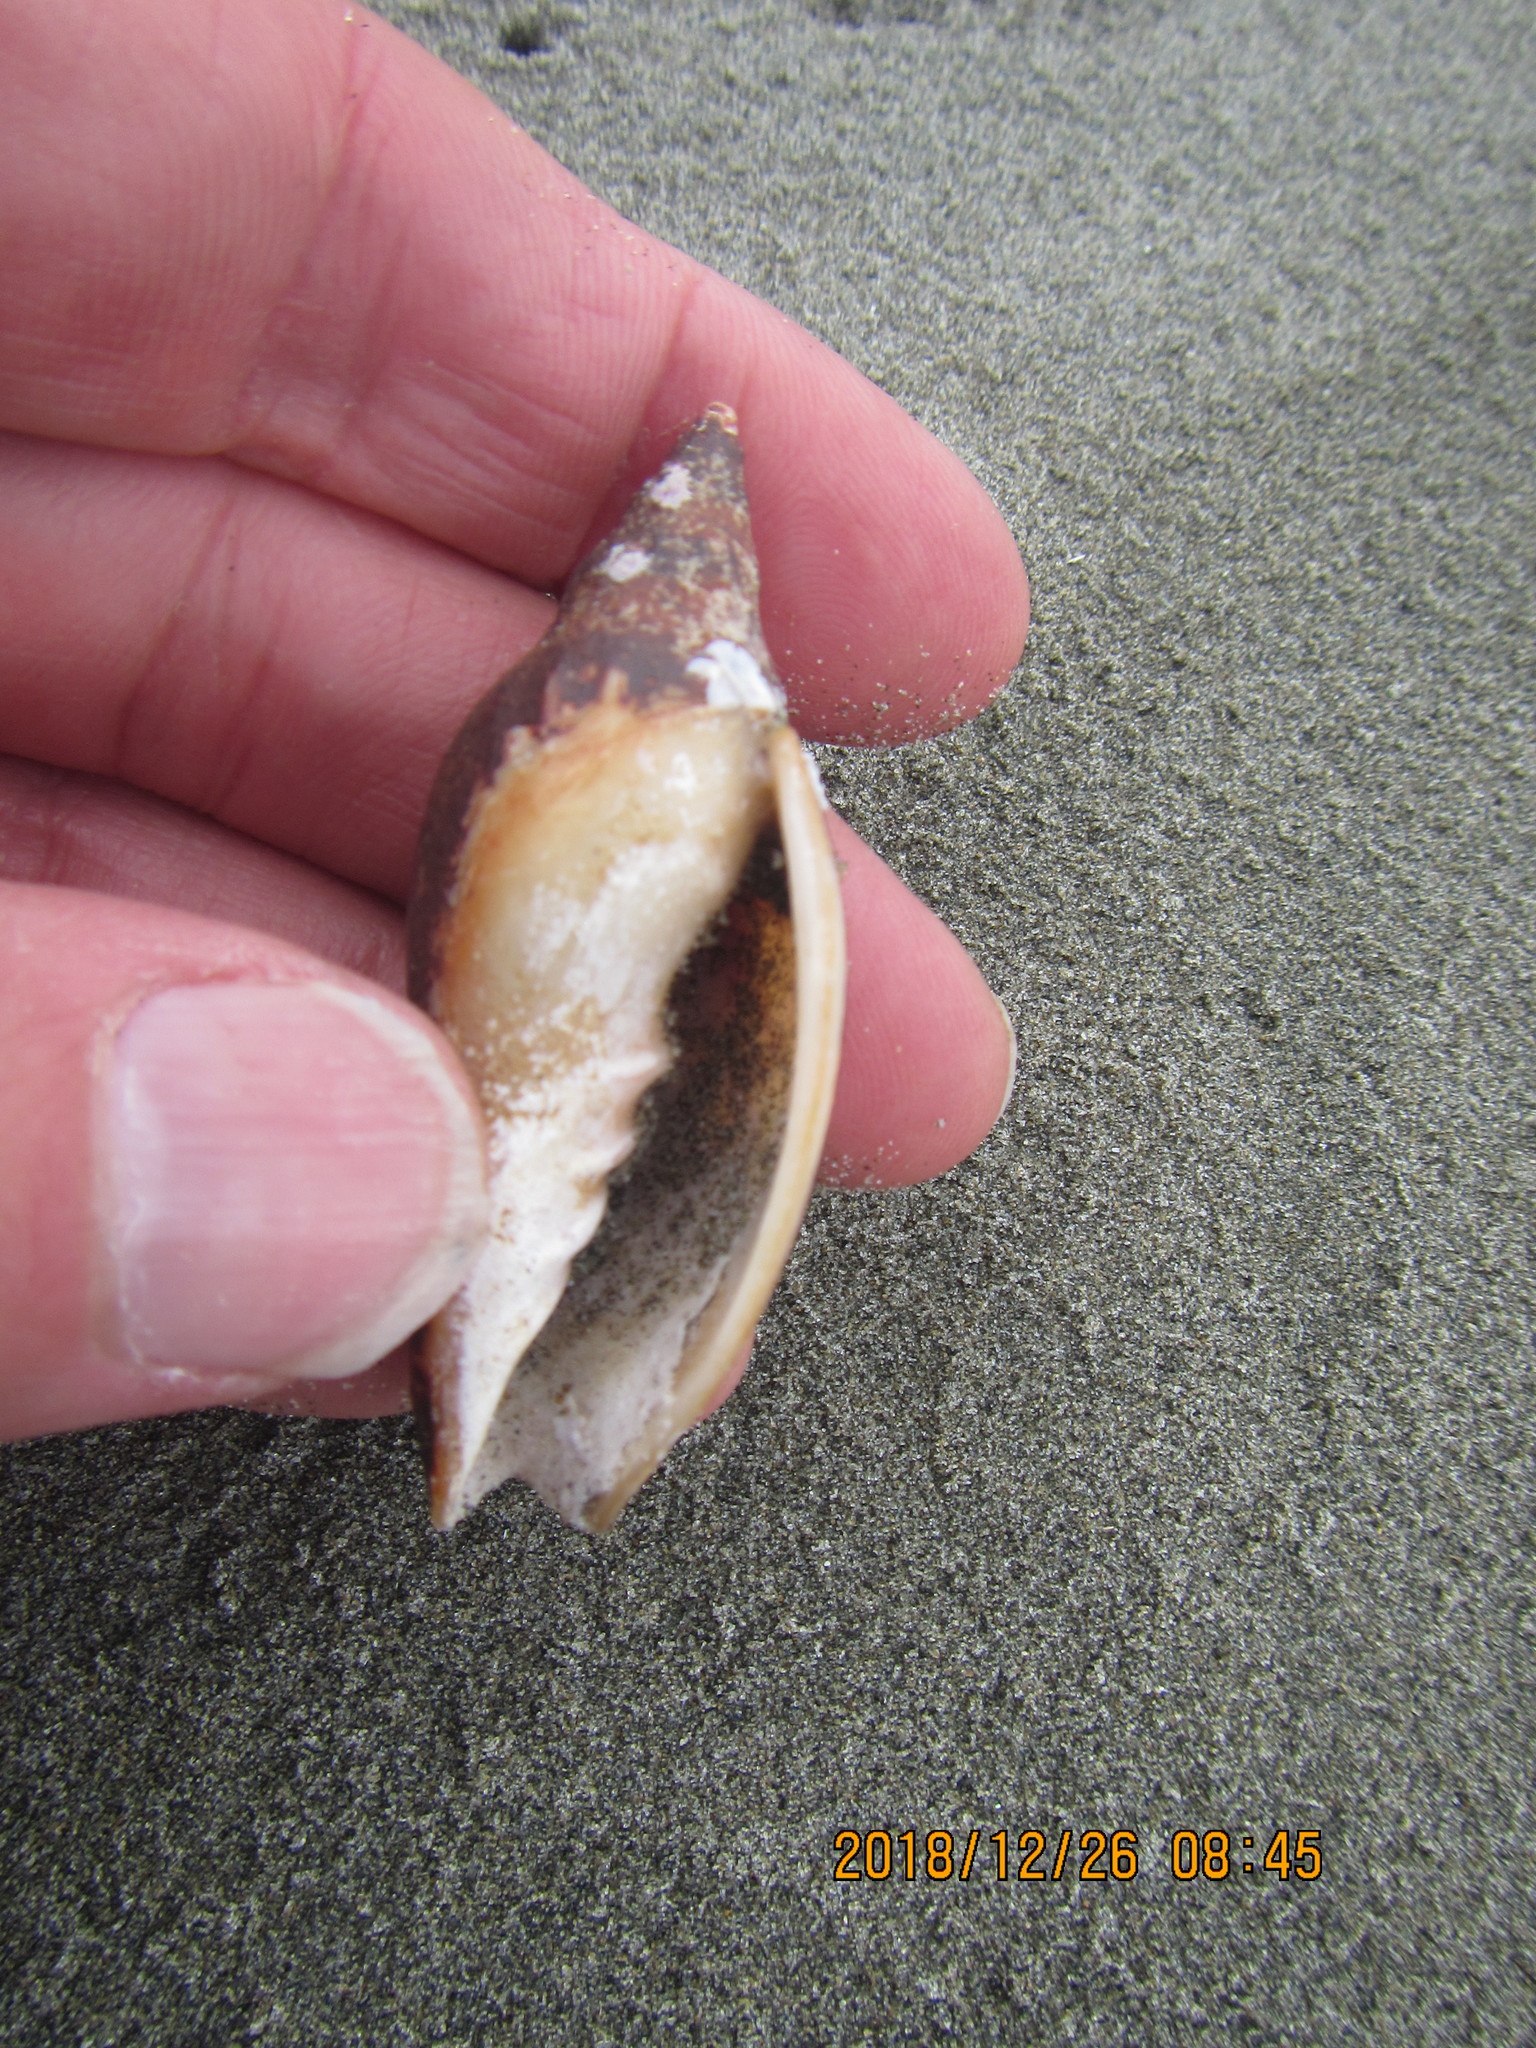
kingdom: Animalia
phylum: Mollusca
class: Gastropoda
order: Neogastropoda
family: Volutidae
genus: Alcithoe
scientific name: Alcithoe fusus
